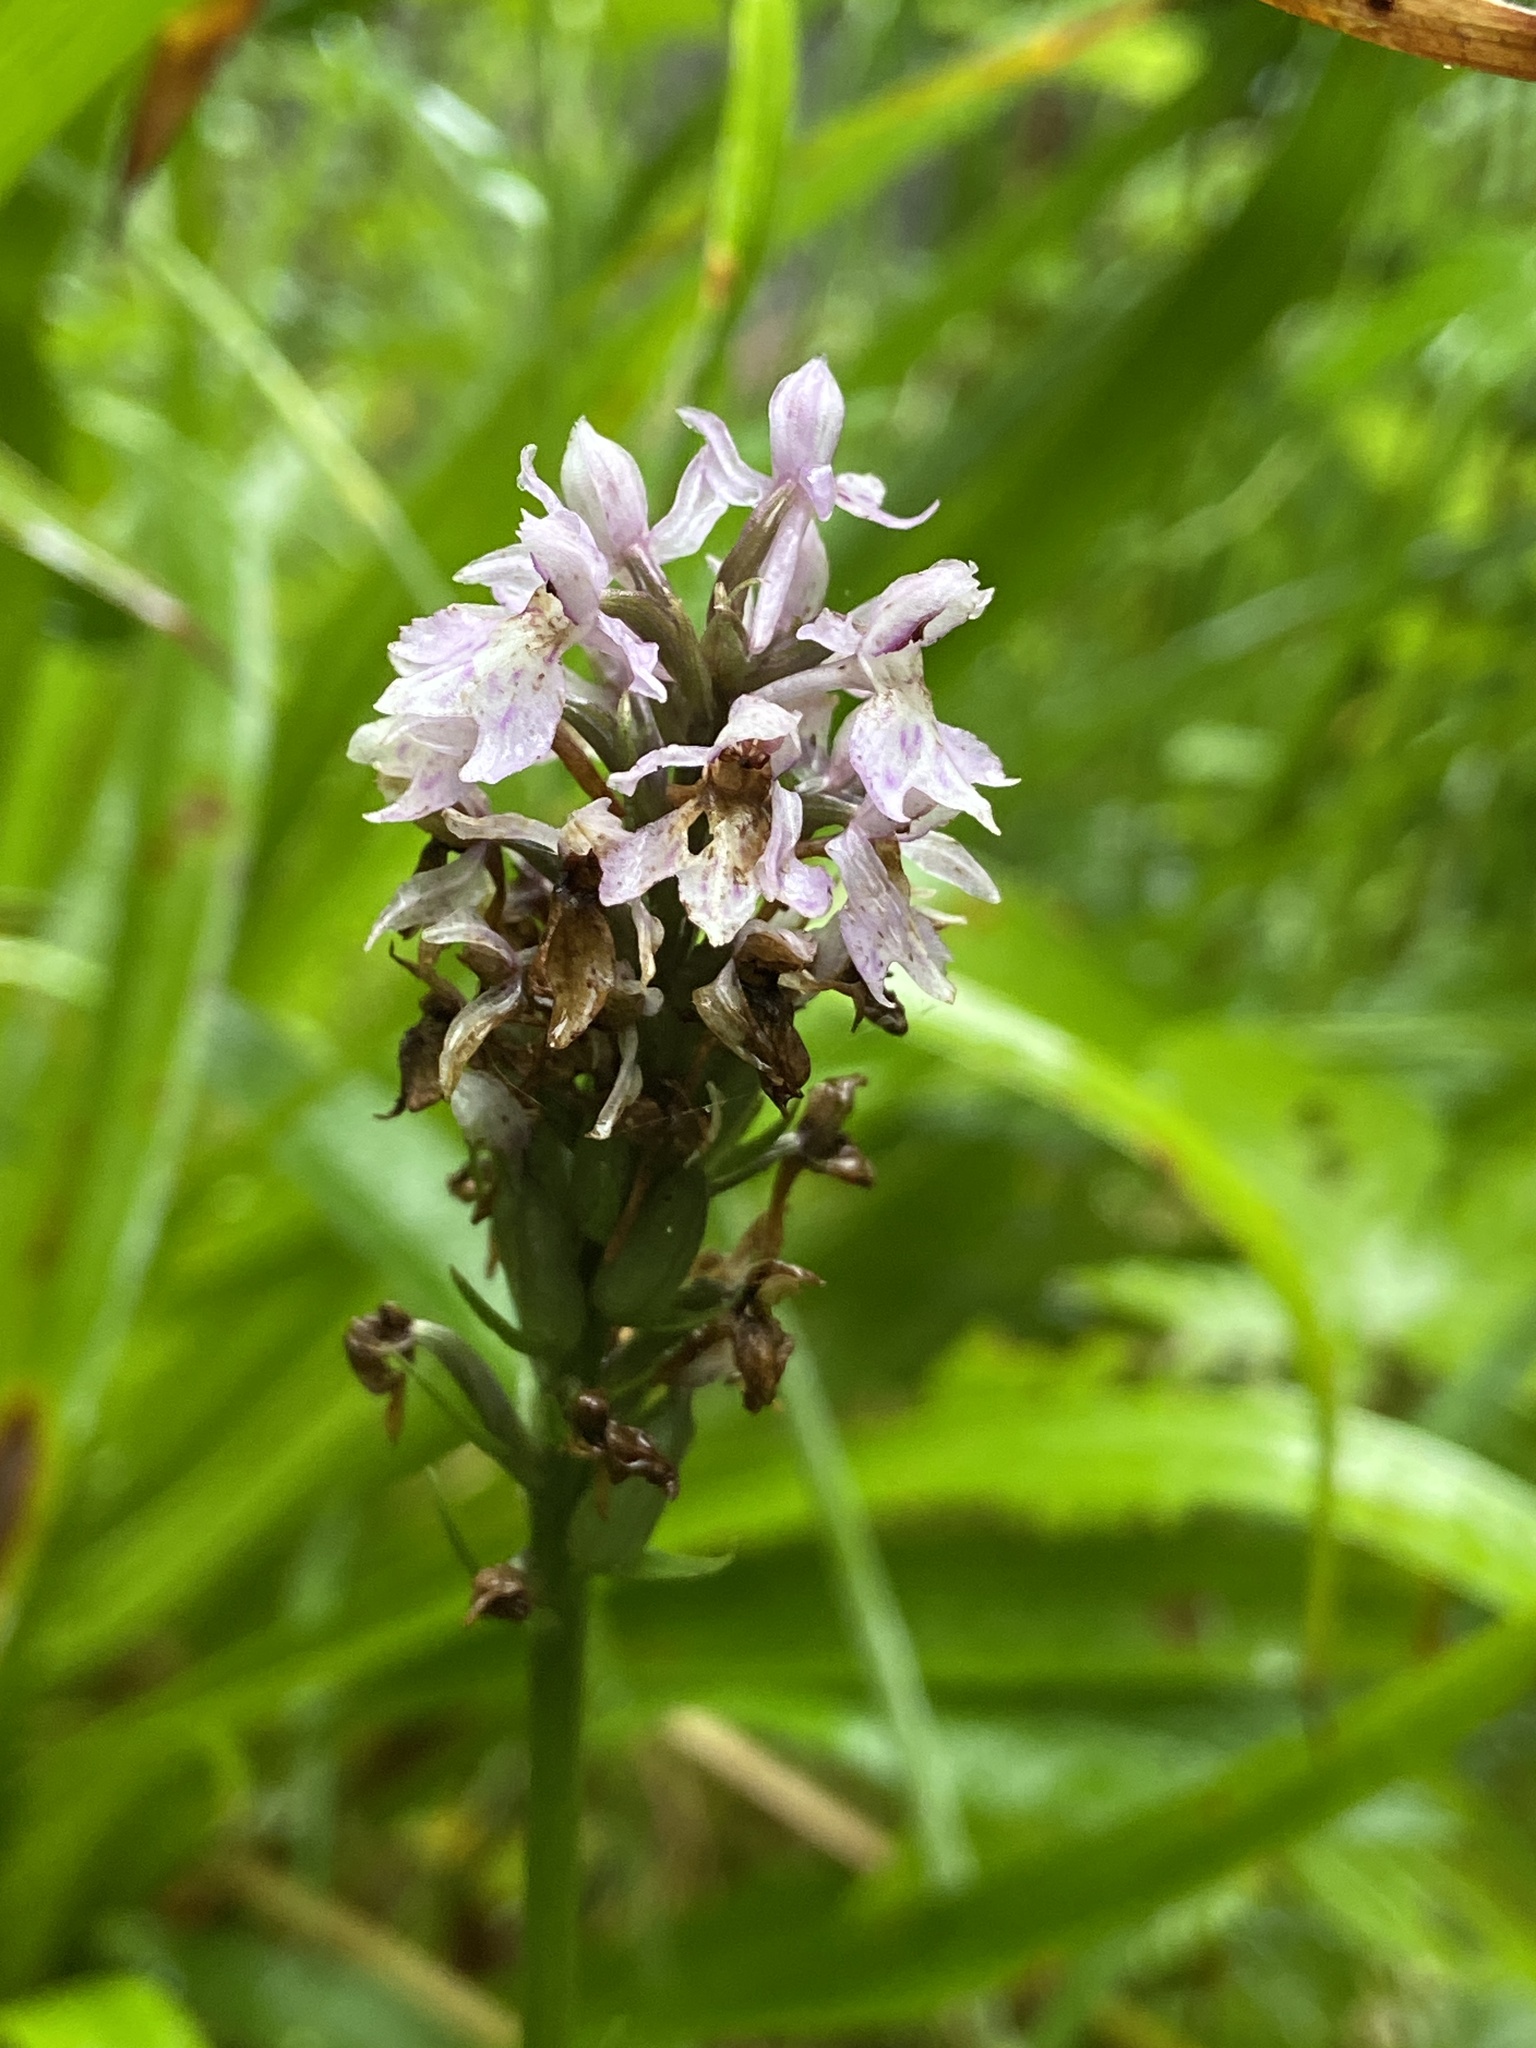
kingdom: Plantae
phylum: Tracheophyta
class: Liliopsida
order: Asparagales
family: Orchidaceae
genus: Dactylorhiza
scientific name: Dactylorhiza maculata
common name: Heath spotted-orchid
